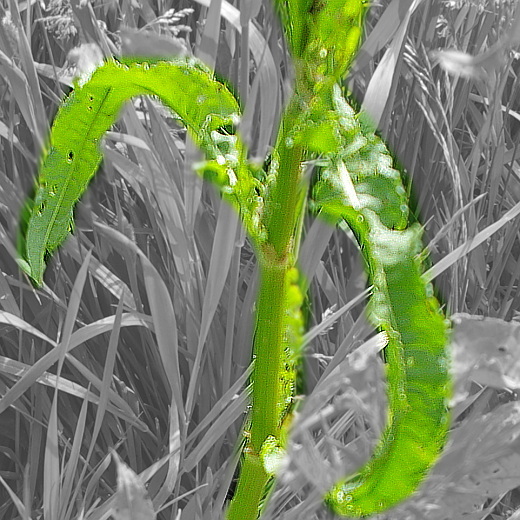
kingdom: Plantae
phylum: Tracheophyta
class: Magnoliopsida
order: Caryophyllales
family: Polygonaceae
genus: Rumex
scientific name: Rumex crispus
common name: Curled dock
